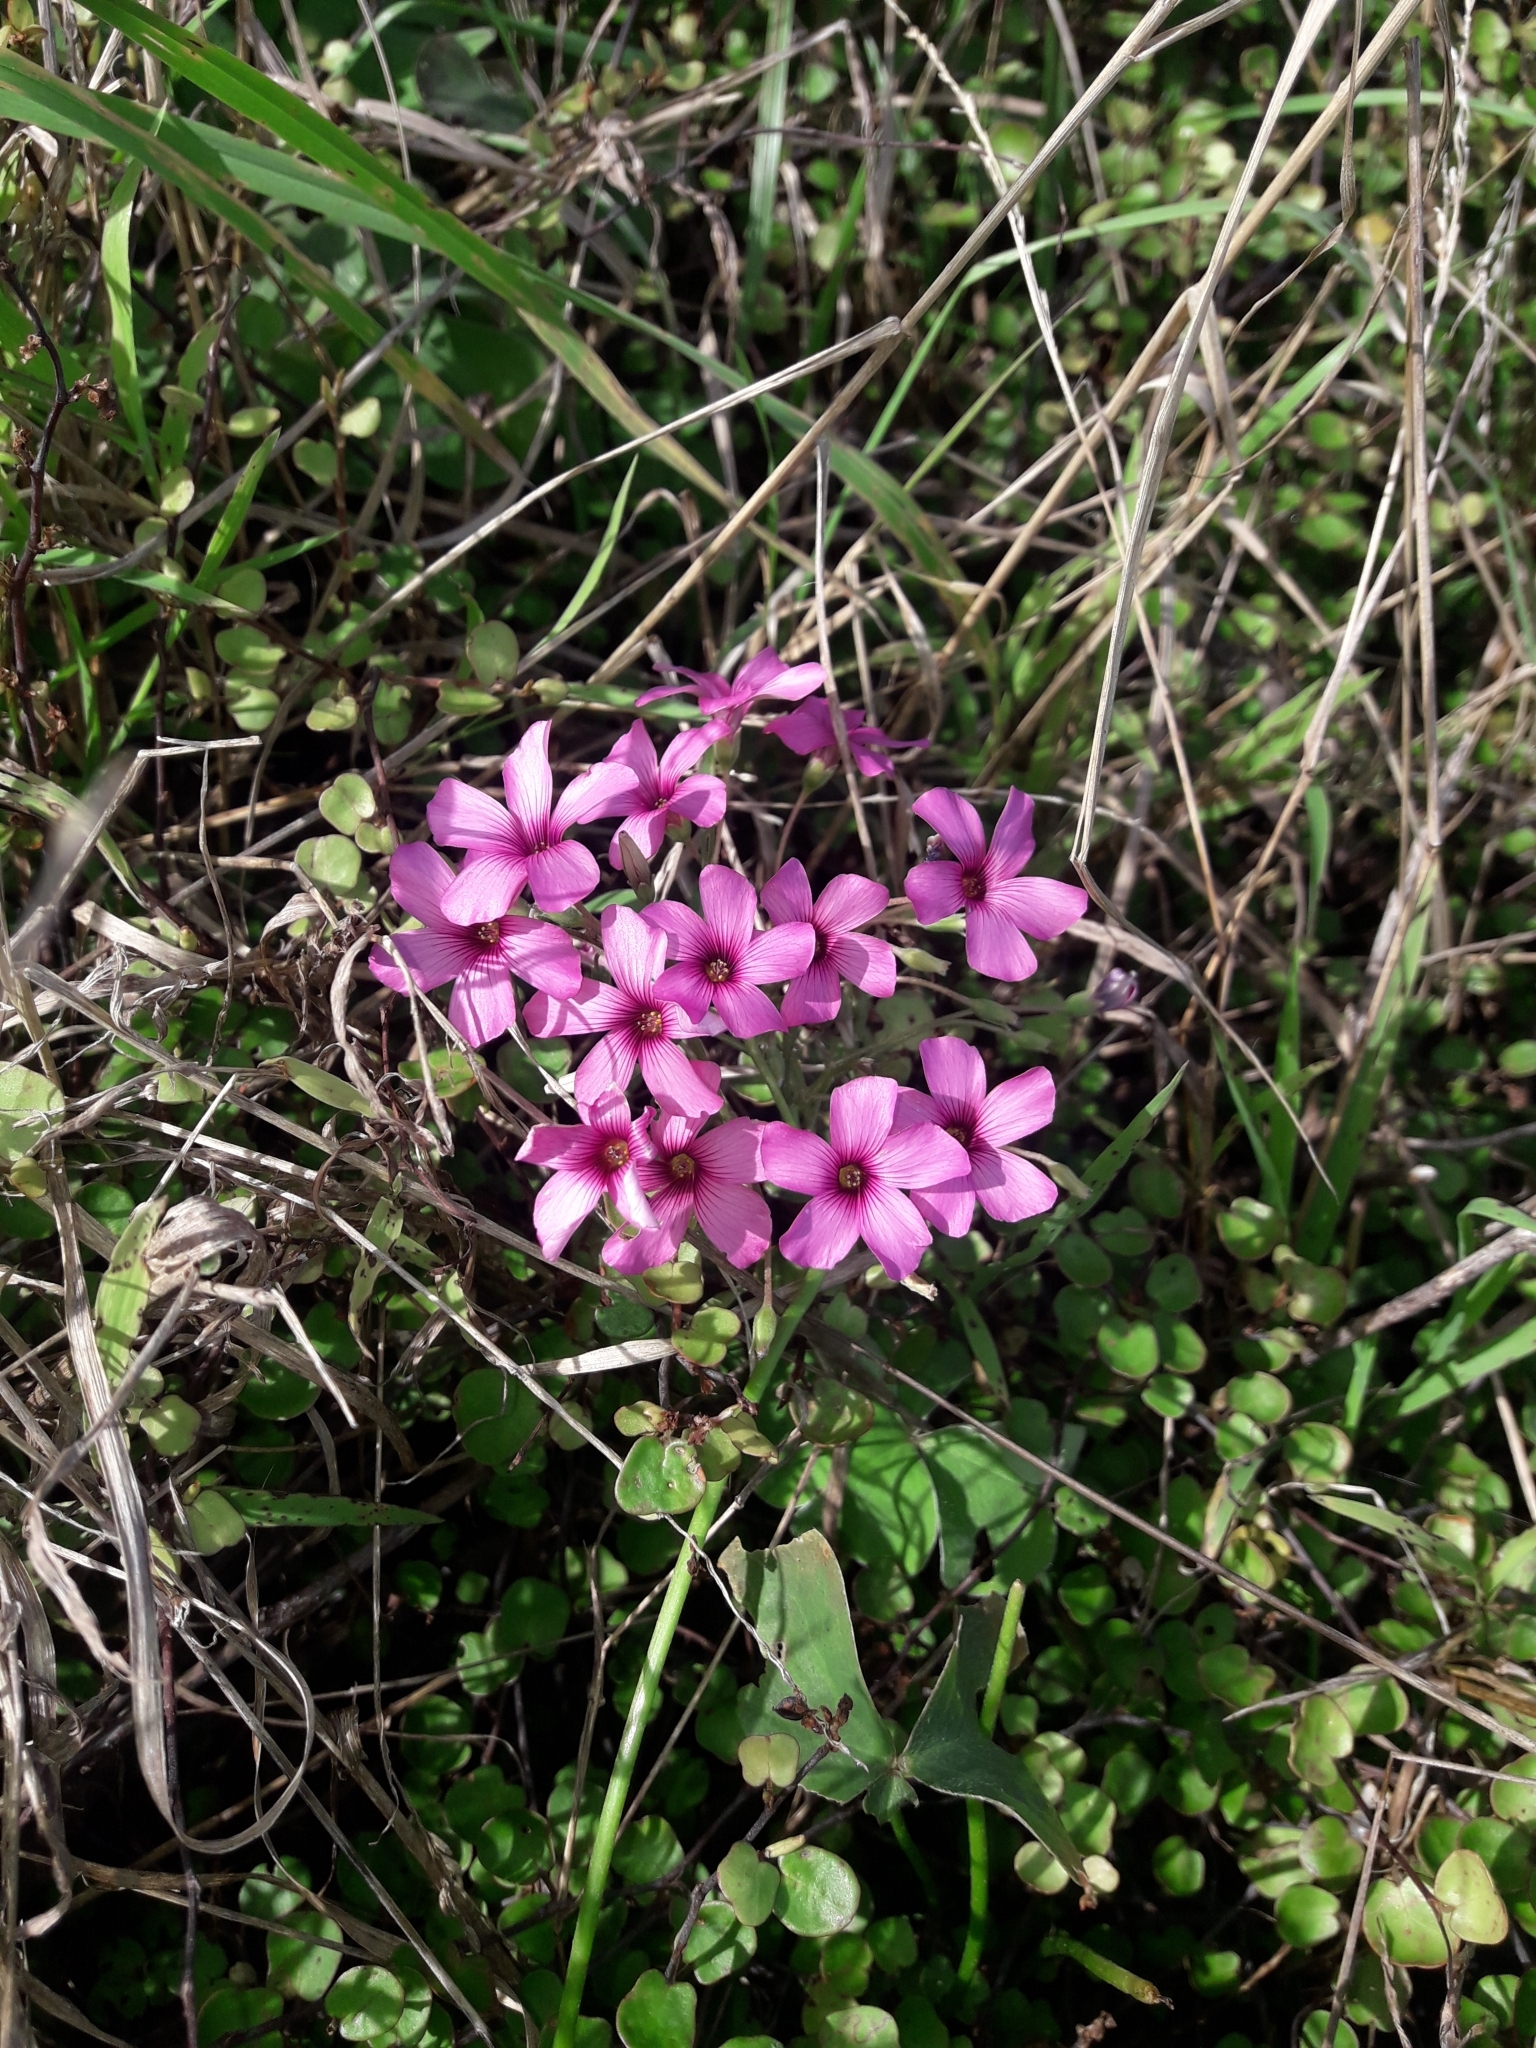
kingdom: Plantae
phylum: Tracheophyta
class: Magnoliopsida
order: Oxalidales
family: Oxalidaceae
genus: Oxalis
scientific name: Oxalis articulata
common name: Pink-sorrel
